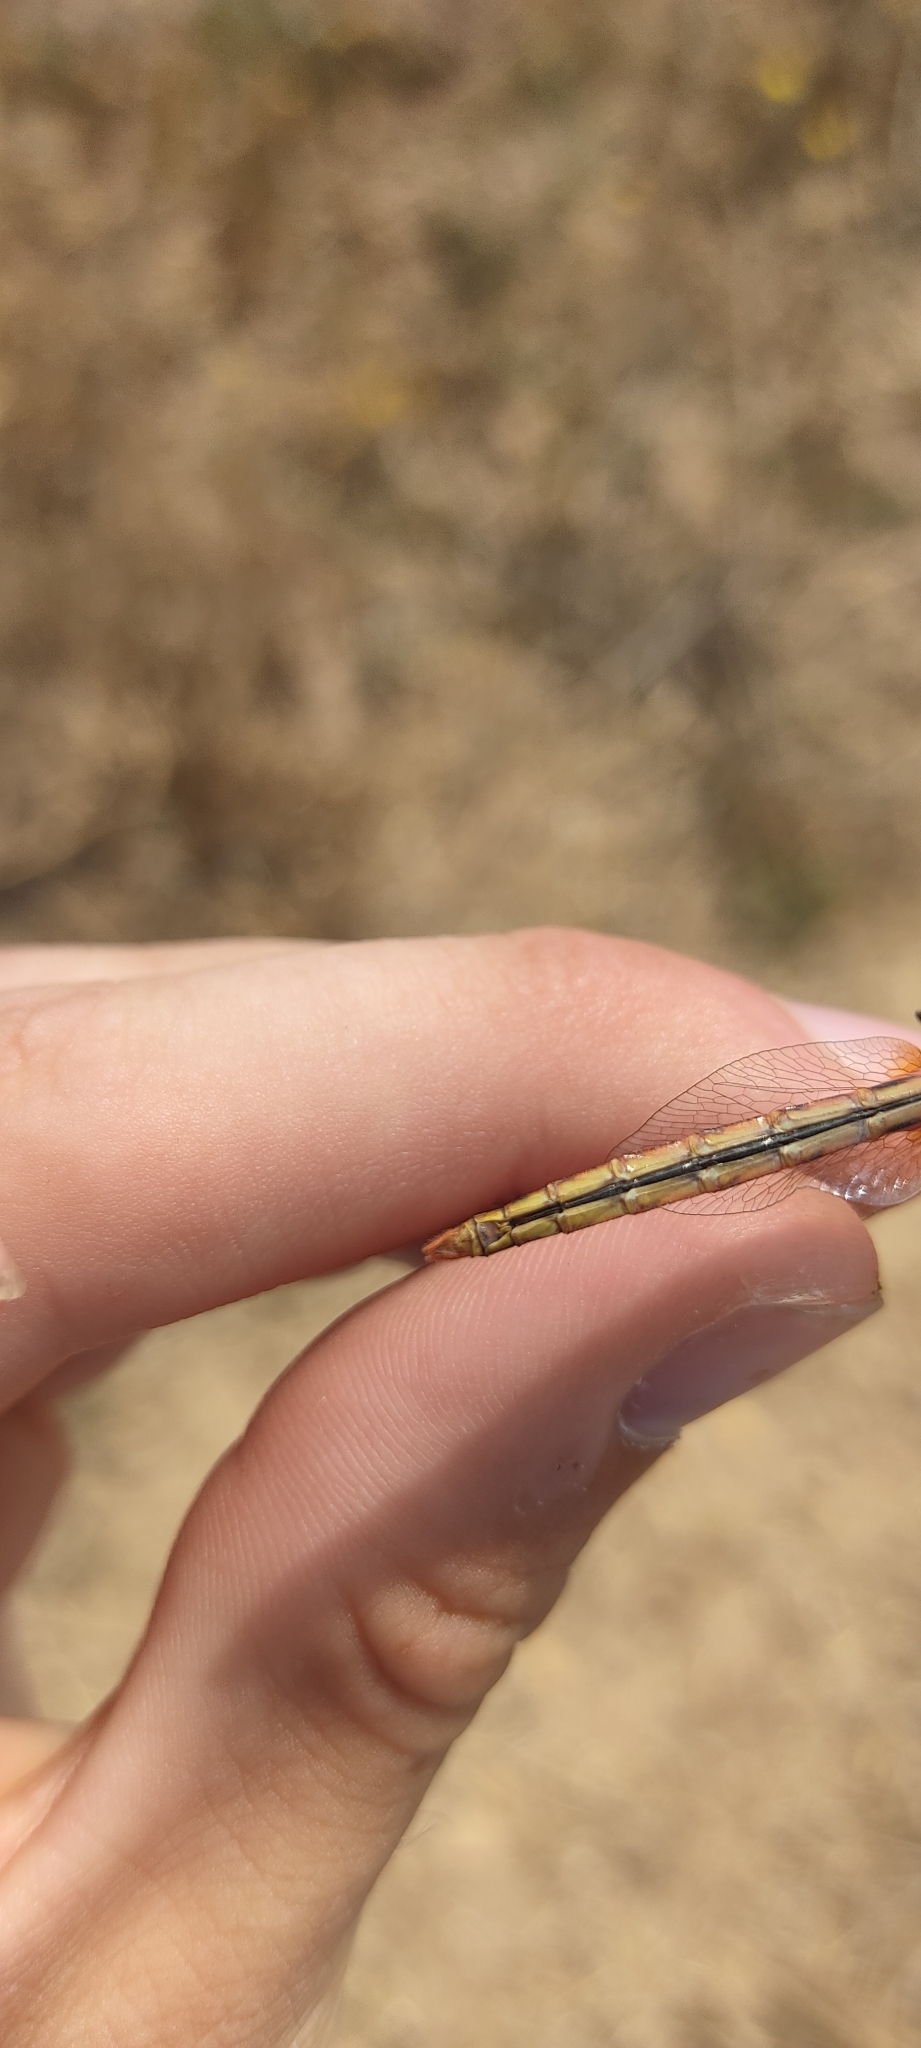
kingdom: Animalia
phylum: Arthropoda
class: Insecta
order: Odonata
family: Libellulidae
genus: Sympetrum
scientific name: Sympetrum fonscolombii
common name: Red-veined darter
